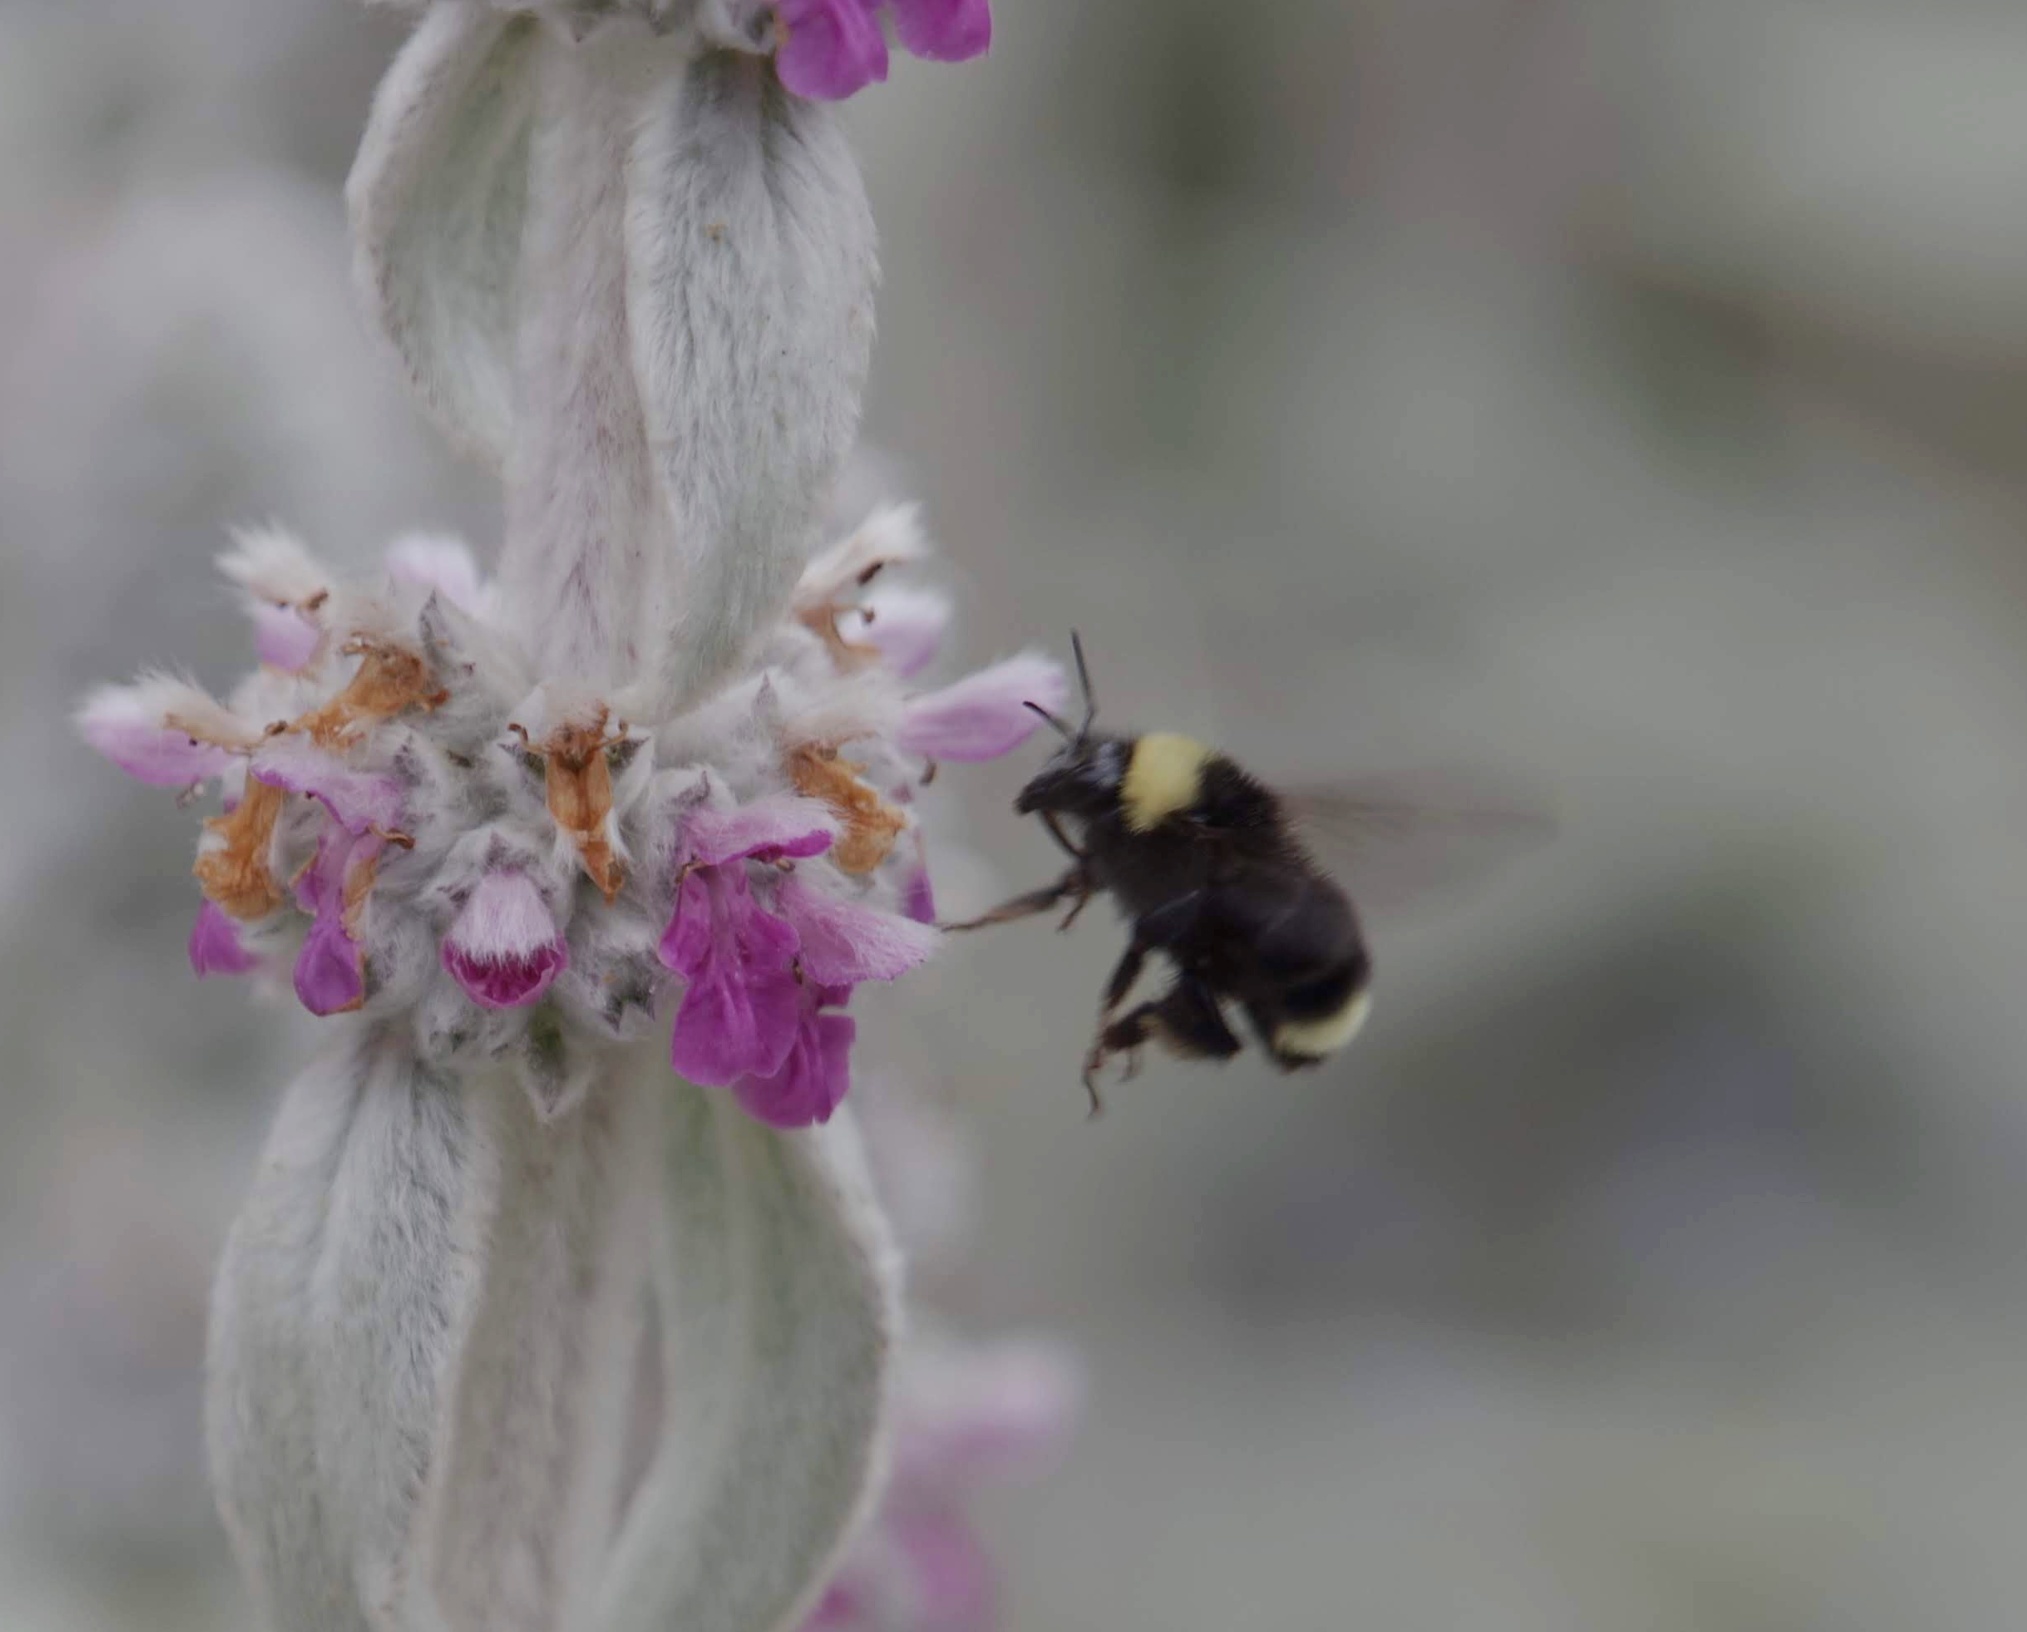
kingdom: Animalia
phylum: Arthropoda
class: Insecta
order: Hymenoptera
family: Apidae
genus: Bombus
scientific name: Bombus californicus
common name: California bumble bee
